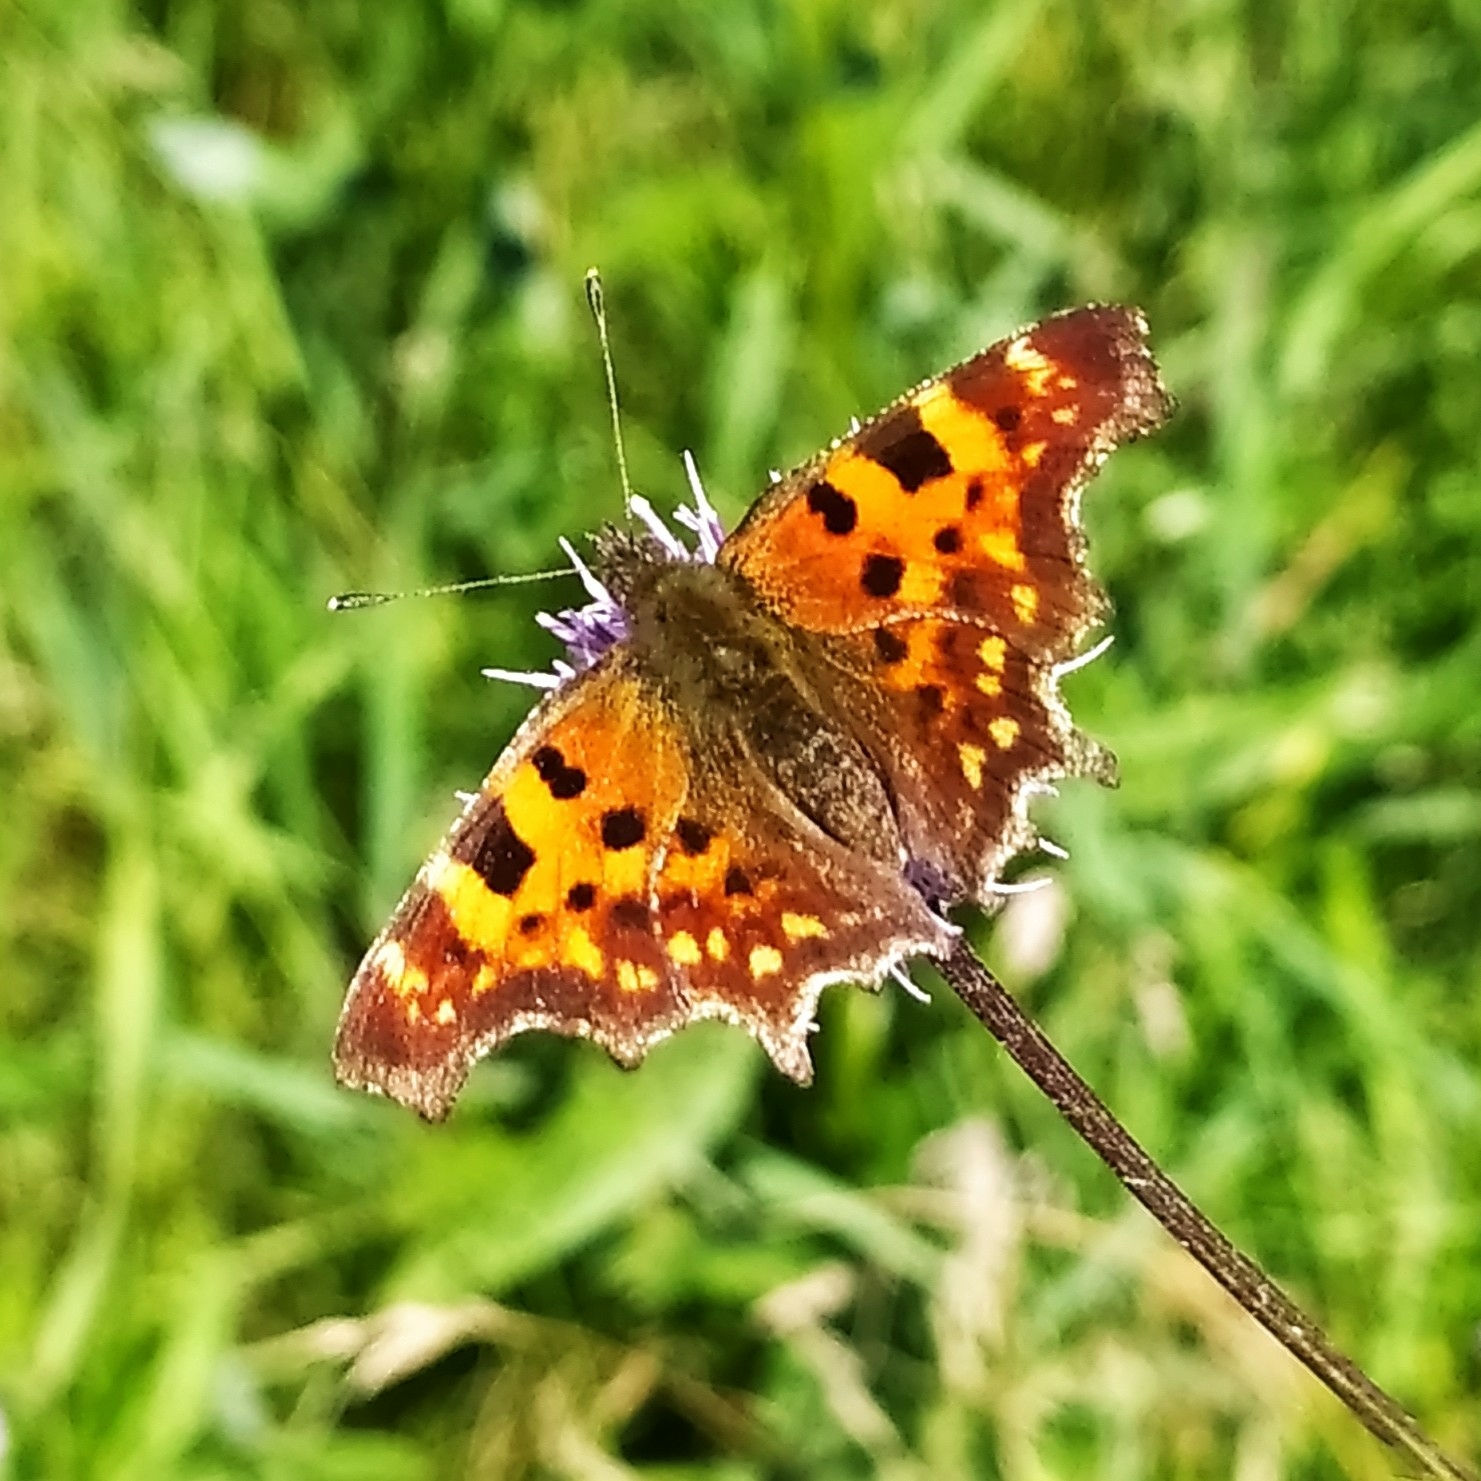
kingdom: Animalia
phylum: Arthropoda
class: Insecta
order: Lepidoptera
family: Nymphalidae
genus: Polygonia
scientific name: Polygonia c-album
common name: Comma
